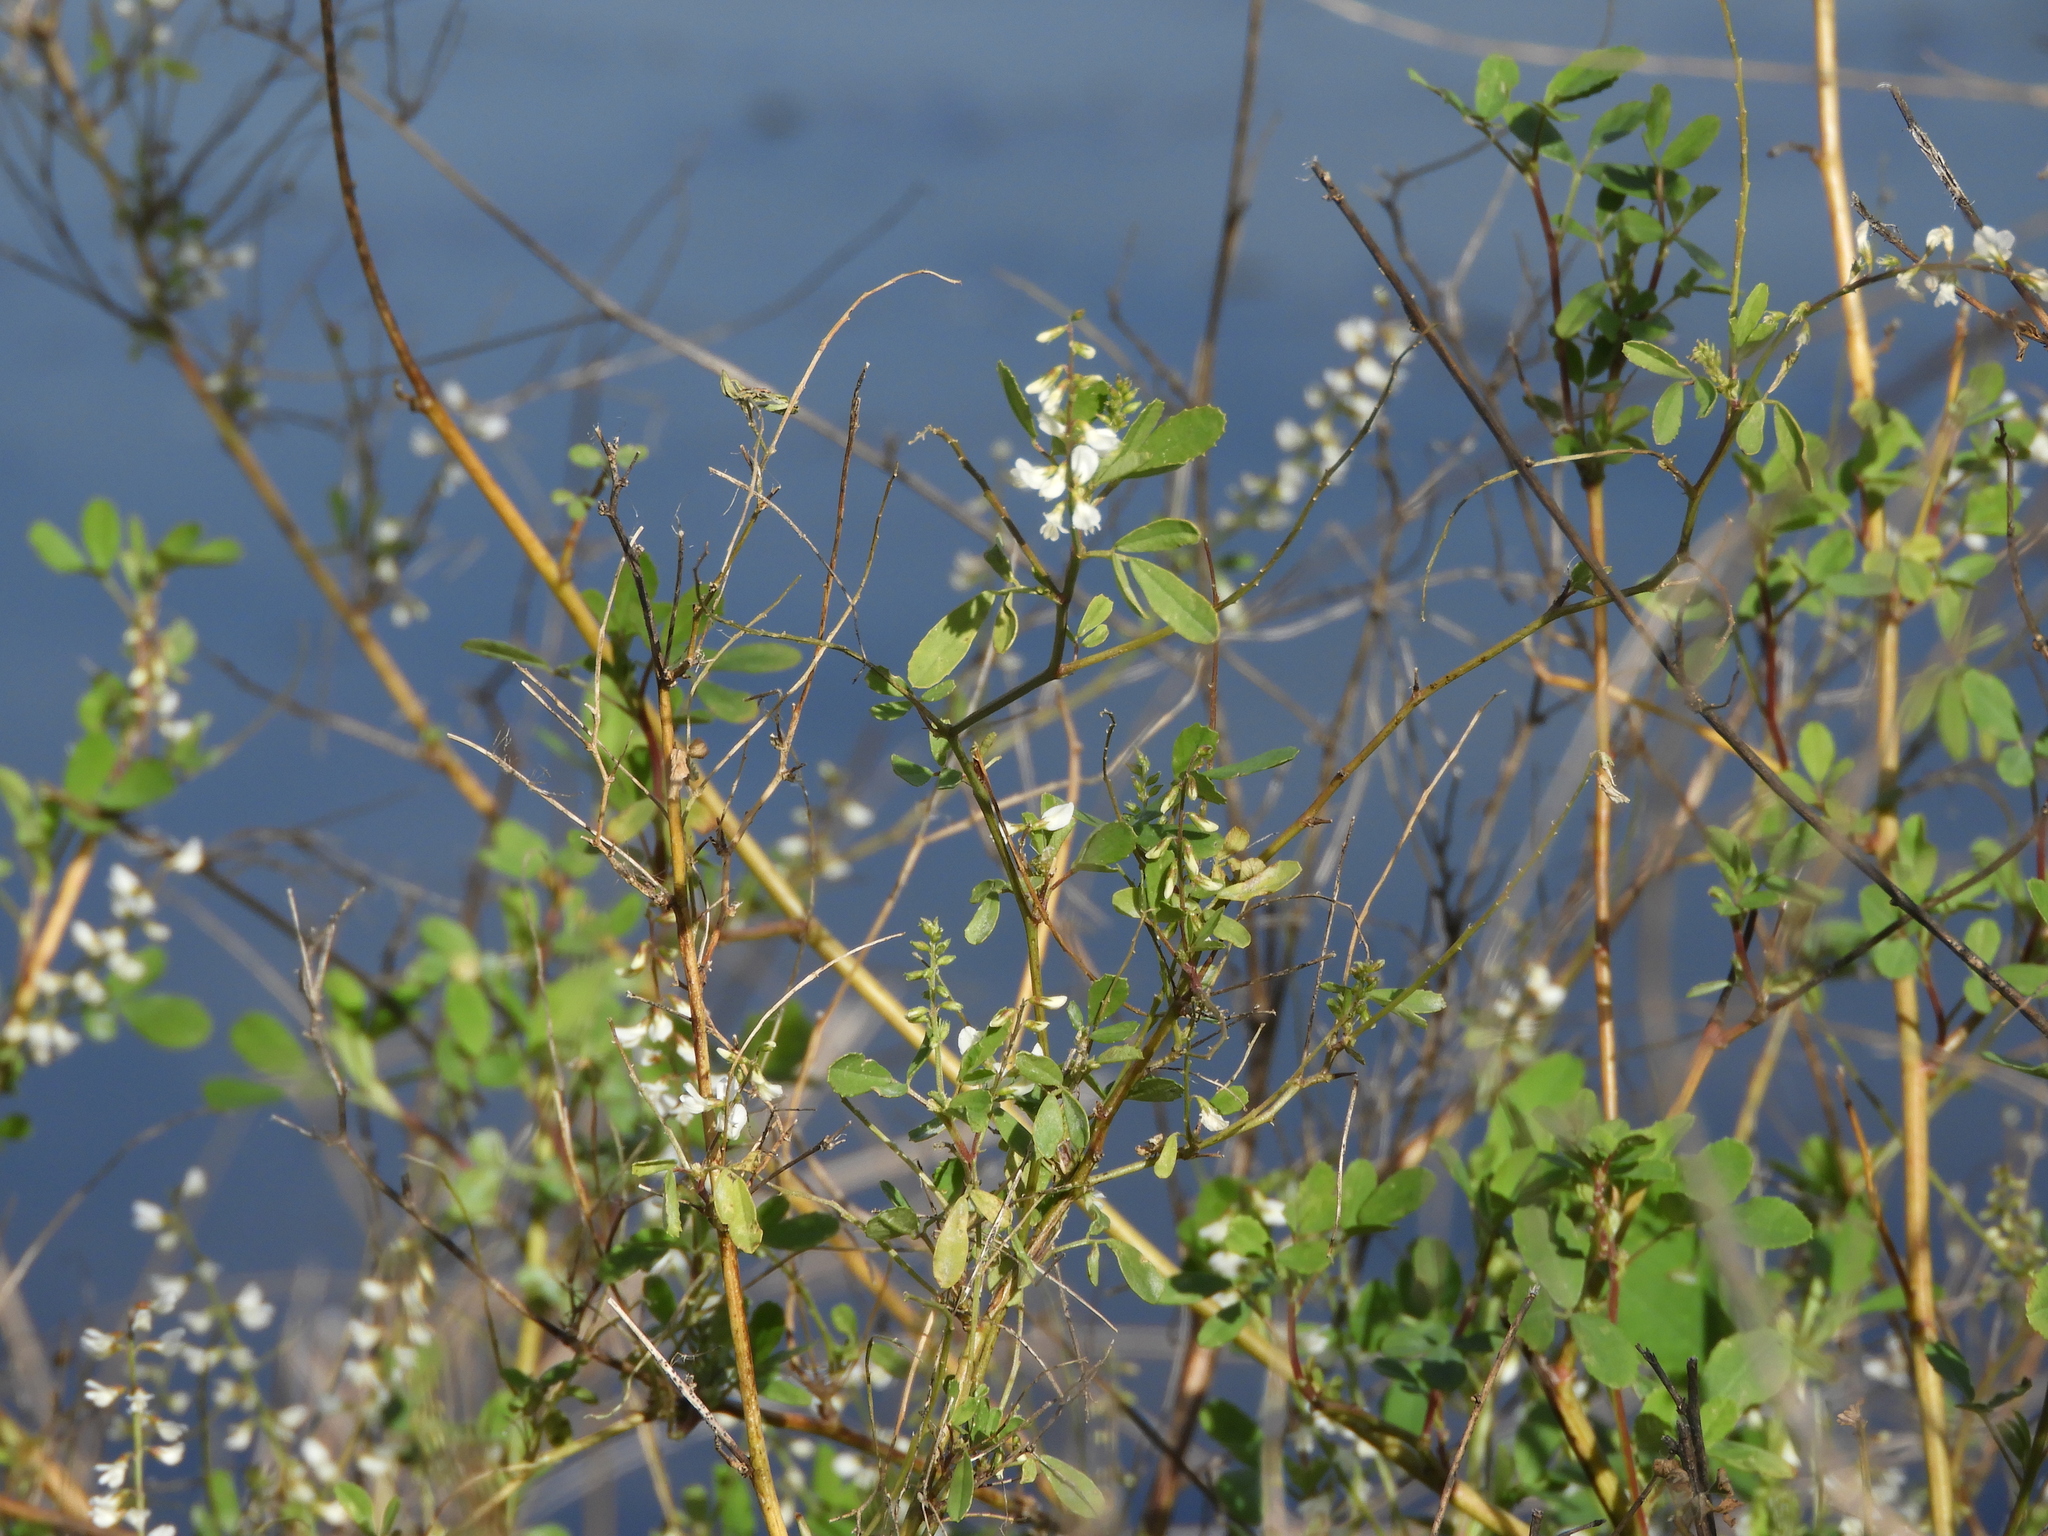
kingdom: Plantae
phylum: Tracheophyta
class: Magnoliopsida
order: Fabales
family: Fabaceae
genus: Melilotus
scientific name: Melilotus albus
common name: White melilot
